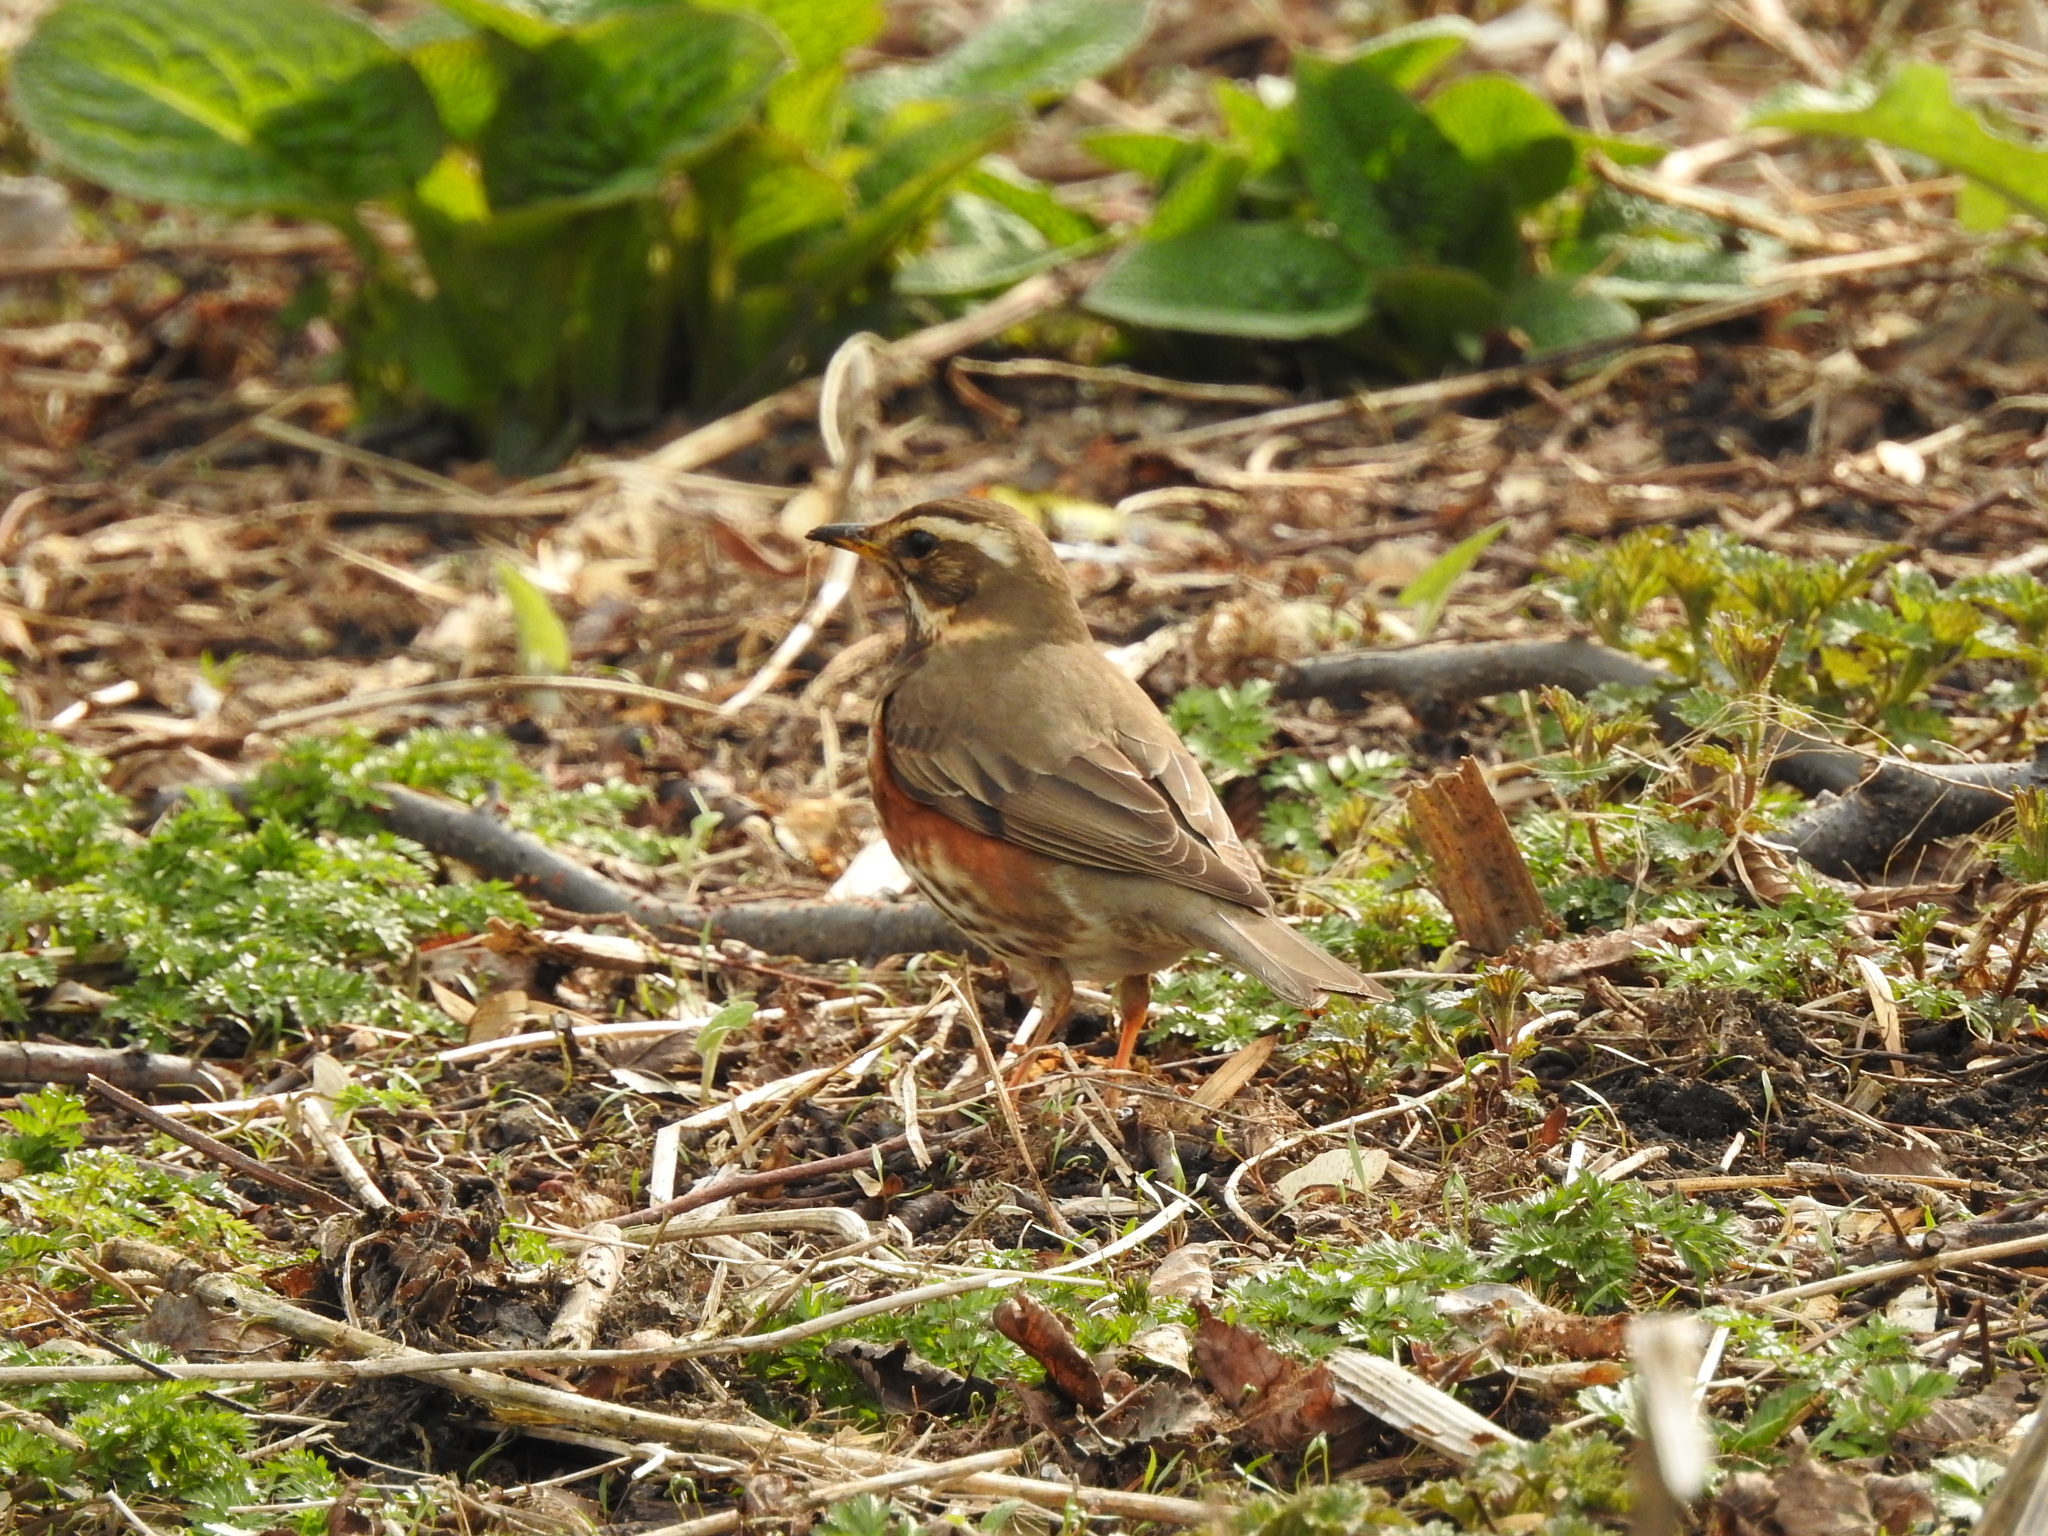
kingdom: Animalia
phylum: Chordata
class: Aves
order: Passeriformes
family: Turdidae
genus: Turdus
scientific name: Turdus iliacus
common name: Redwing
